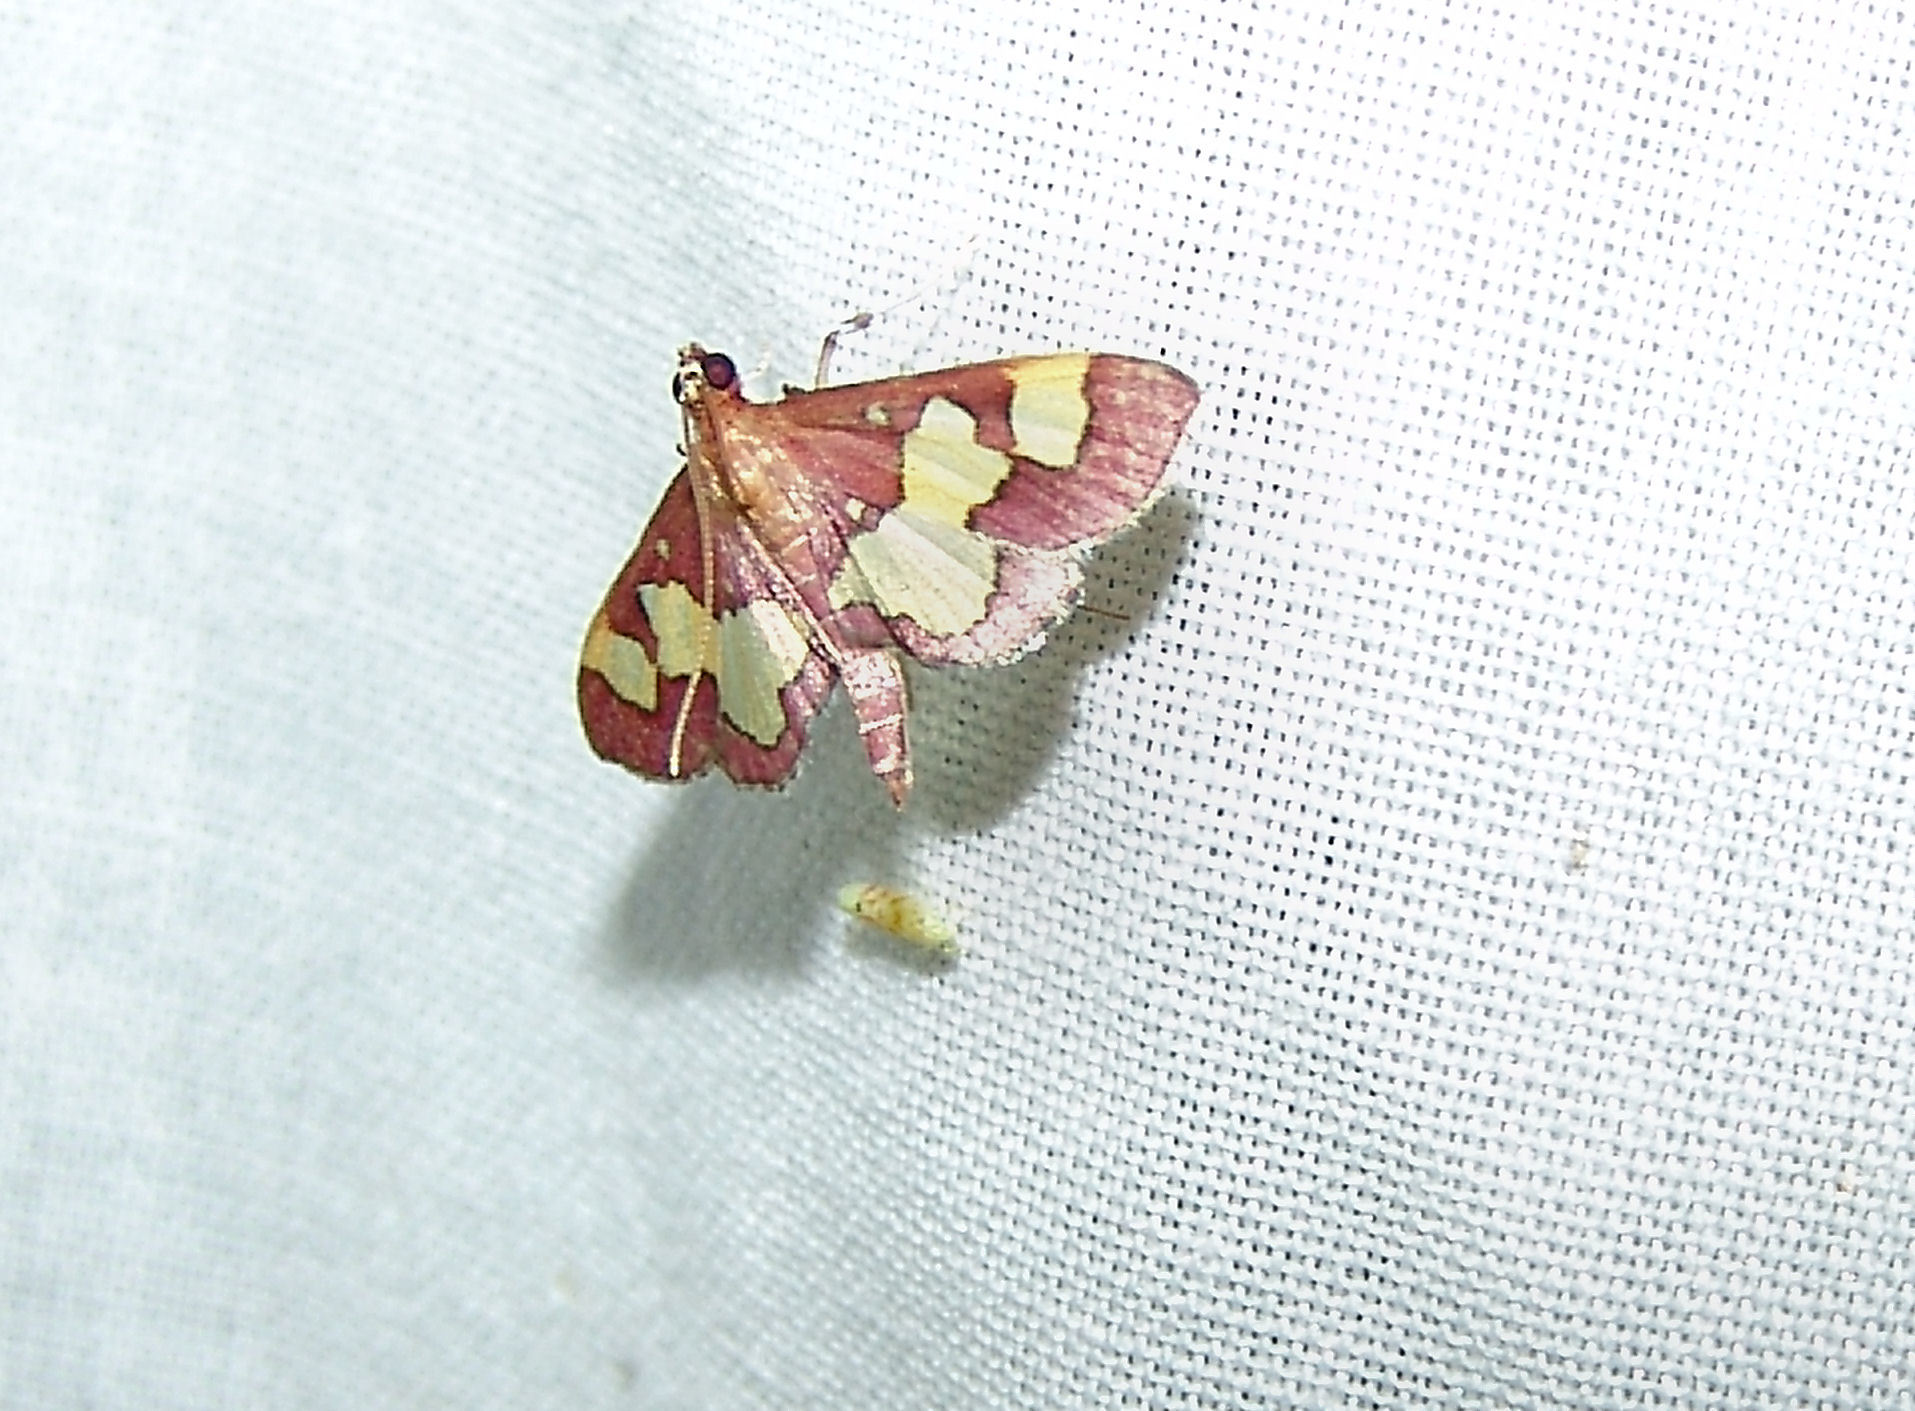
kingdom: Animalia
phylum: Arthropoda
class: Insecta
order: Lepidoptera
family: Crambidae
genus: Colomychus
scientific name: Colomychus talis
